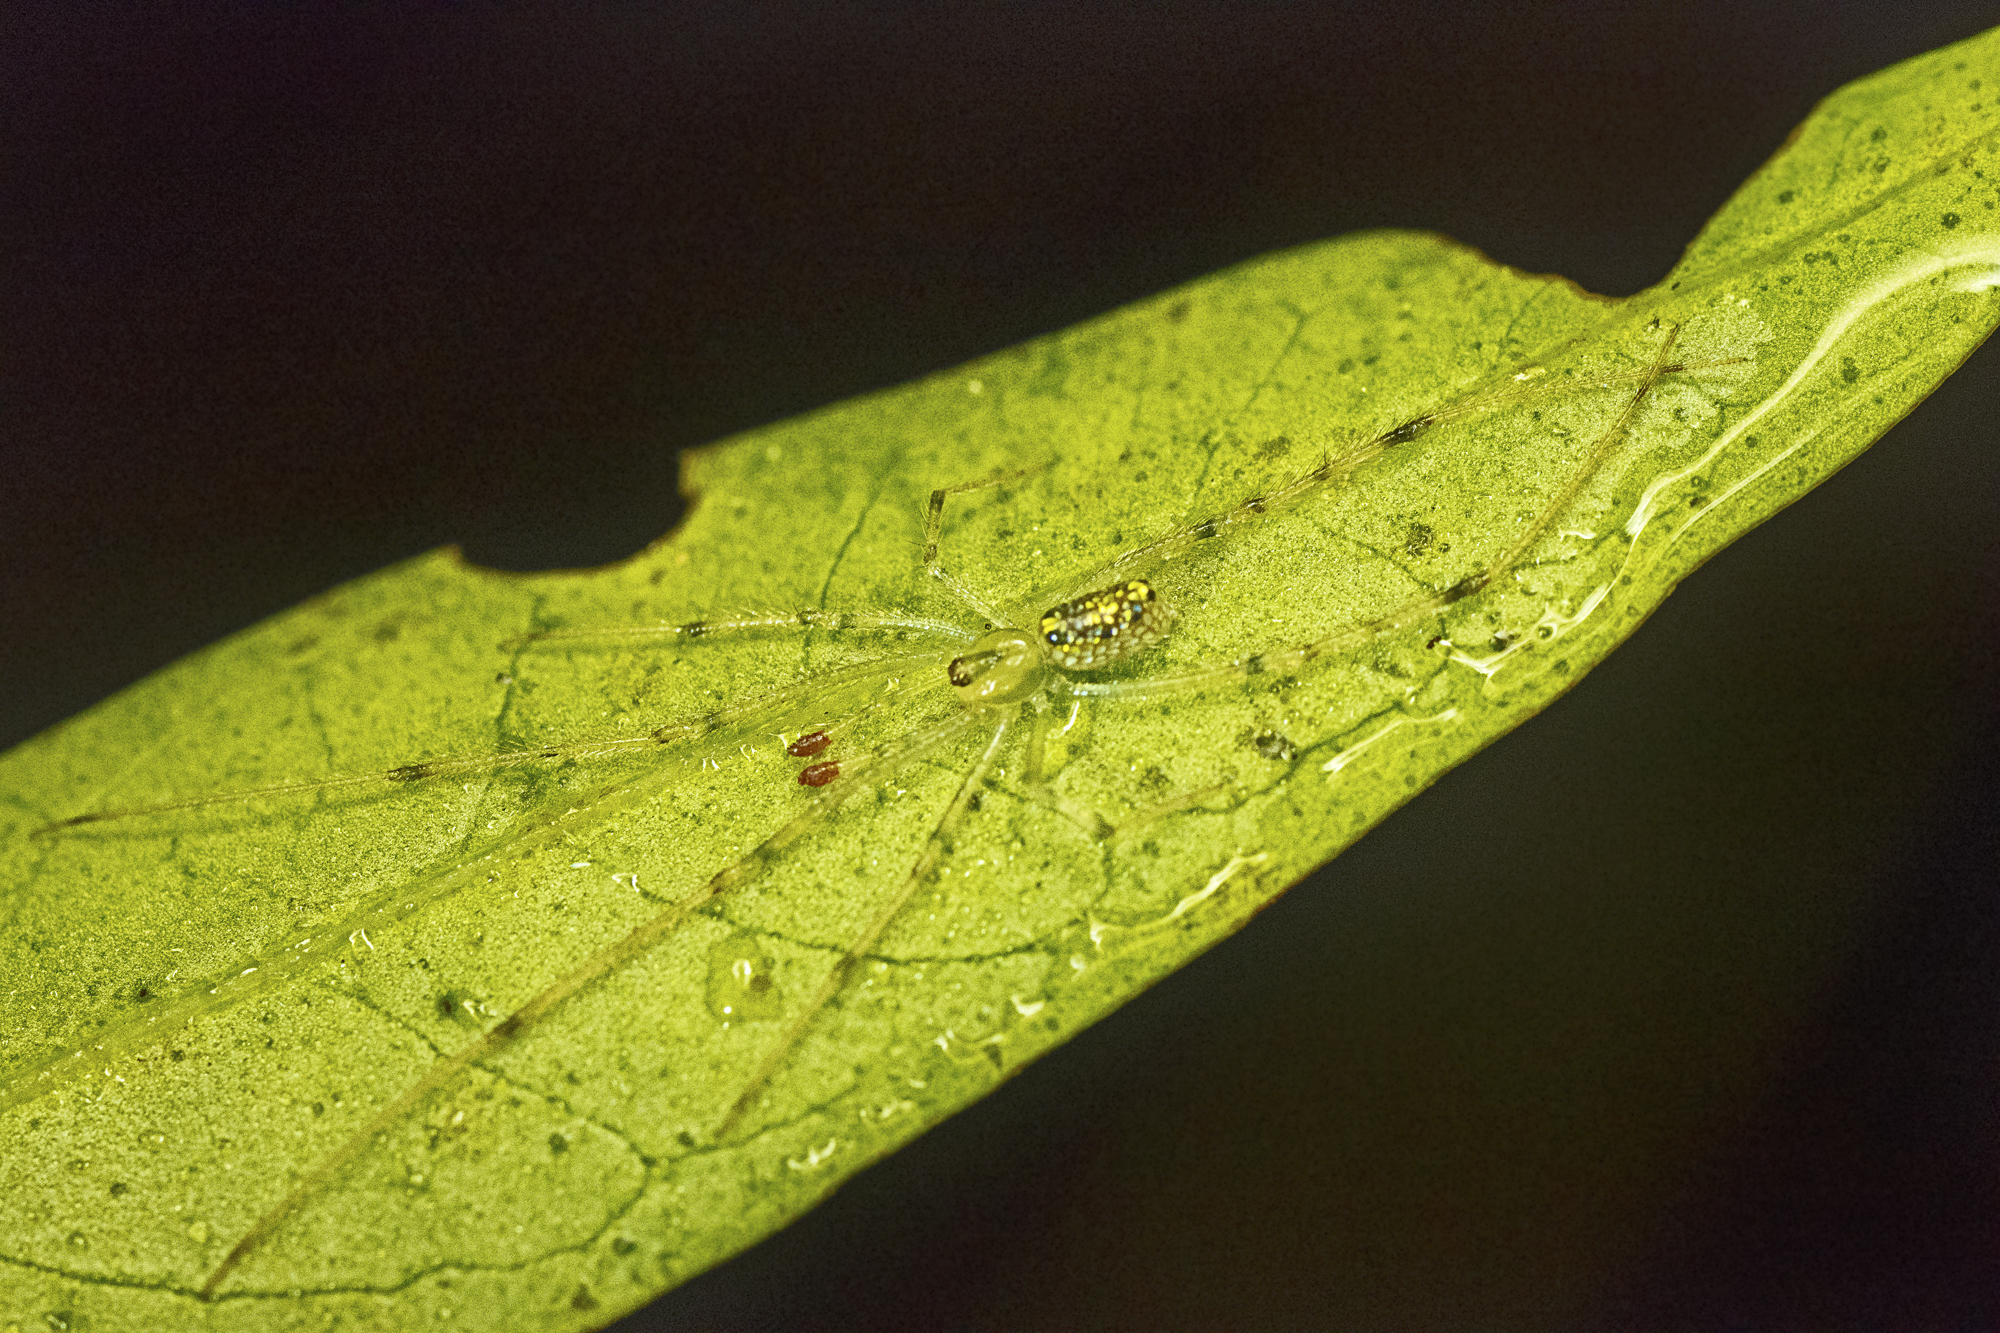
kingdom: Animalia
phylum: Arthropoda
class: Arachnida
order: Araneae
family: Theridiidae
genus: Thwaitesia
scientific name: Thwaitesia nigronodosa
